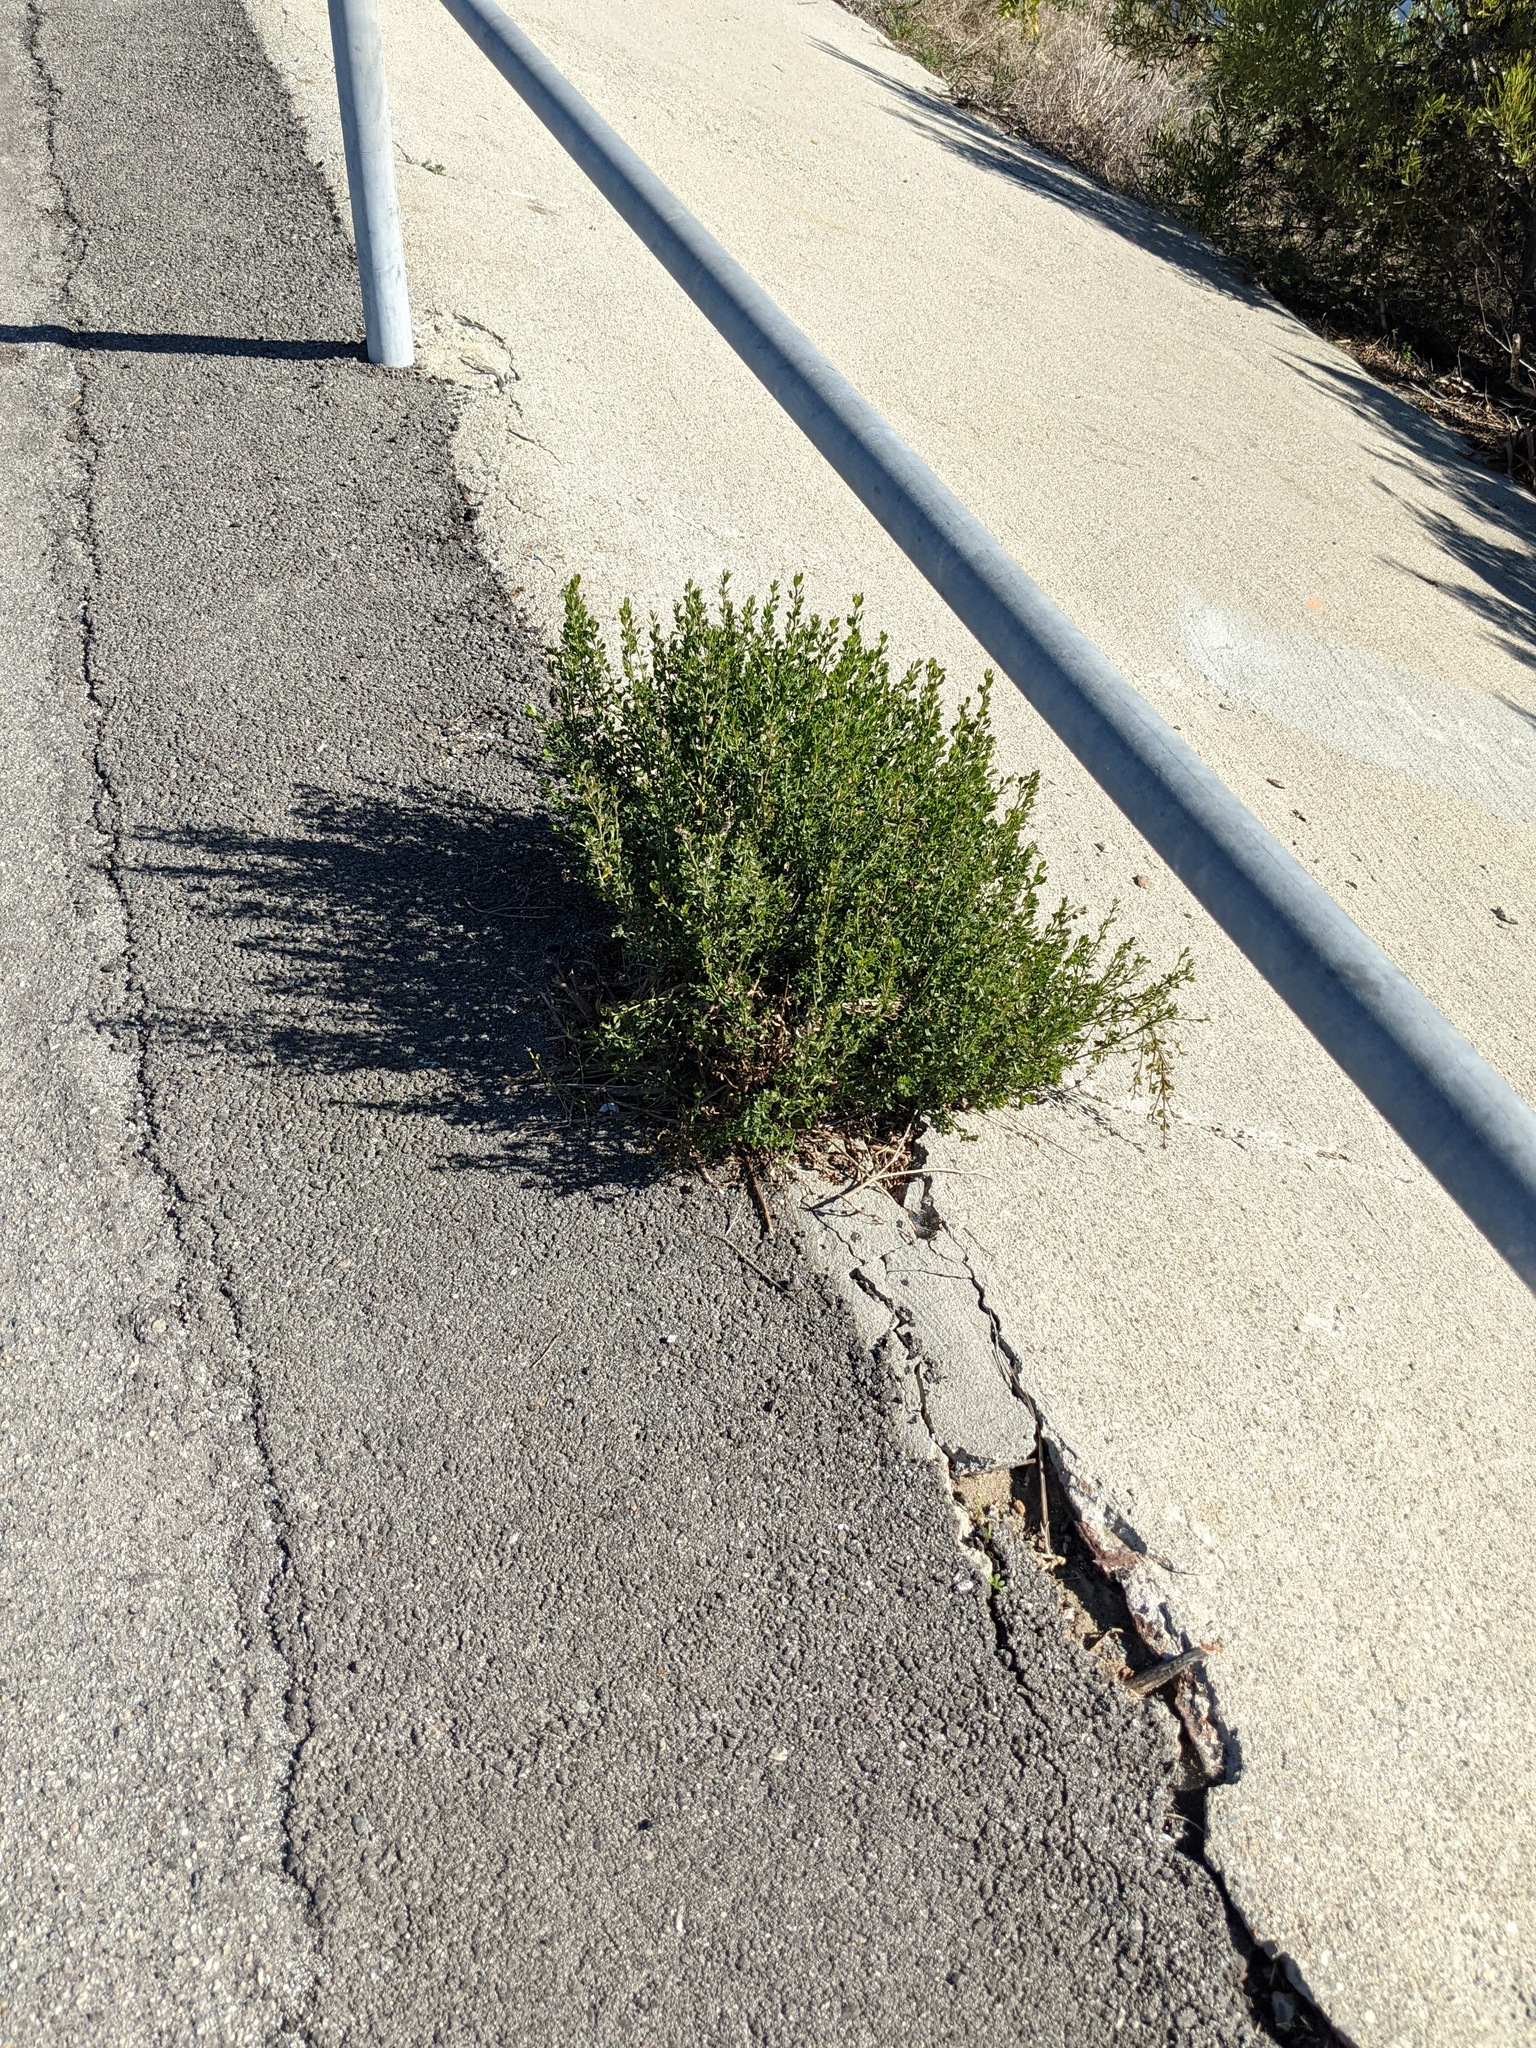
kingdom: Plantae
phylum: Tracheophyta
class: Magnoliopsida
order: Asterales
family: Asteraceae
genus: Baccharis
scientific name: Baccharis pilularis
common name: Coyotebrush
